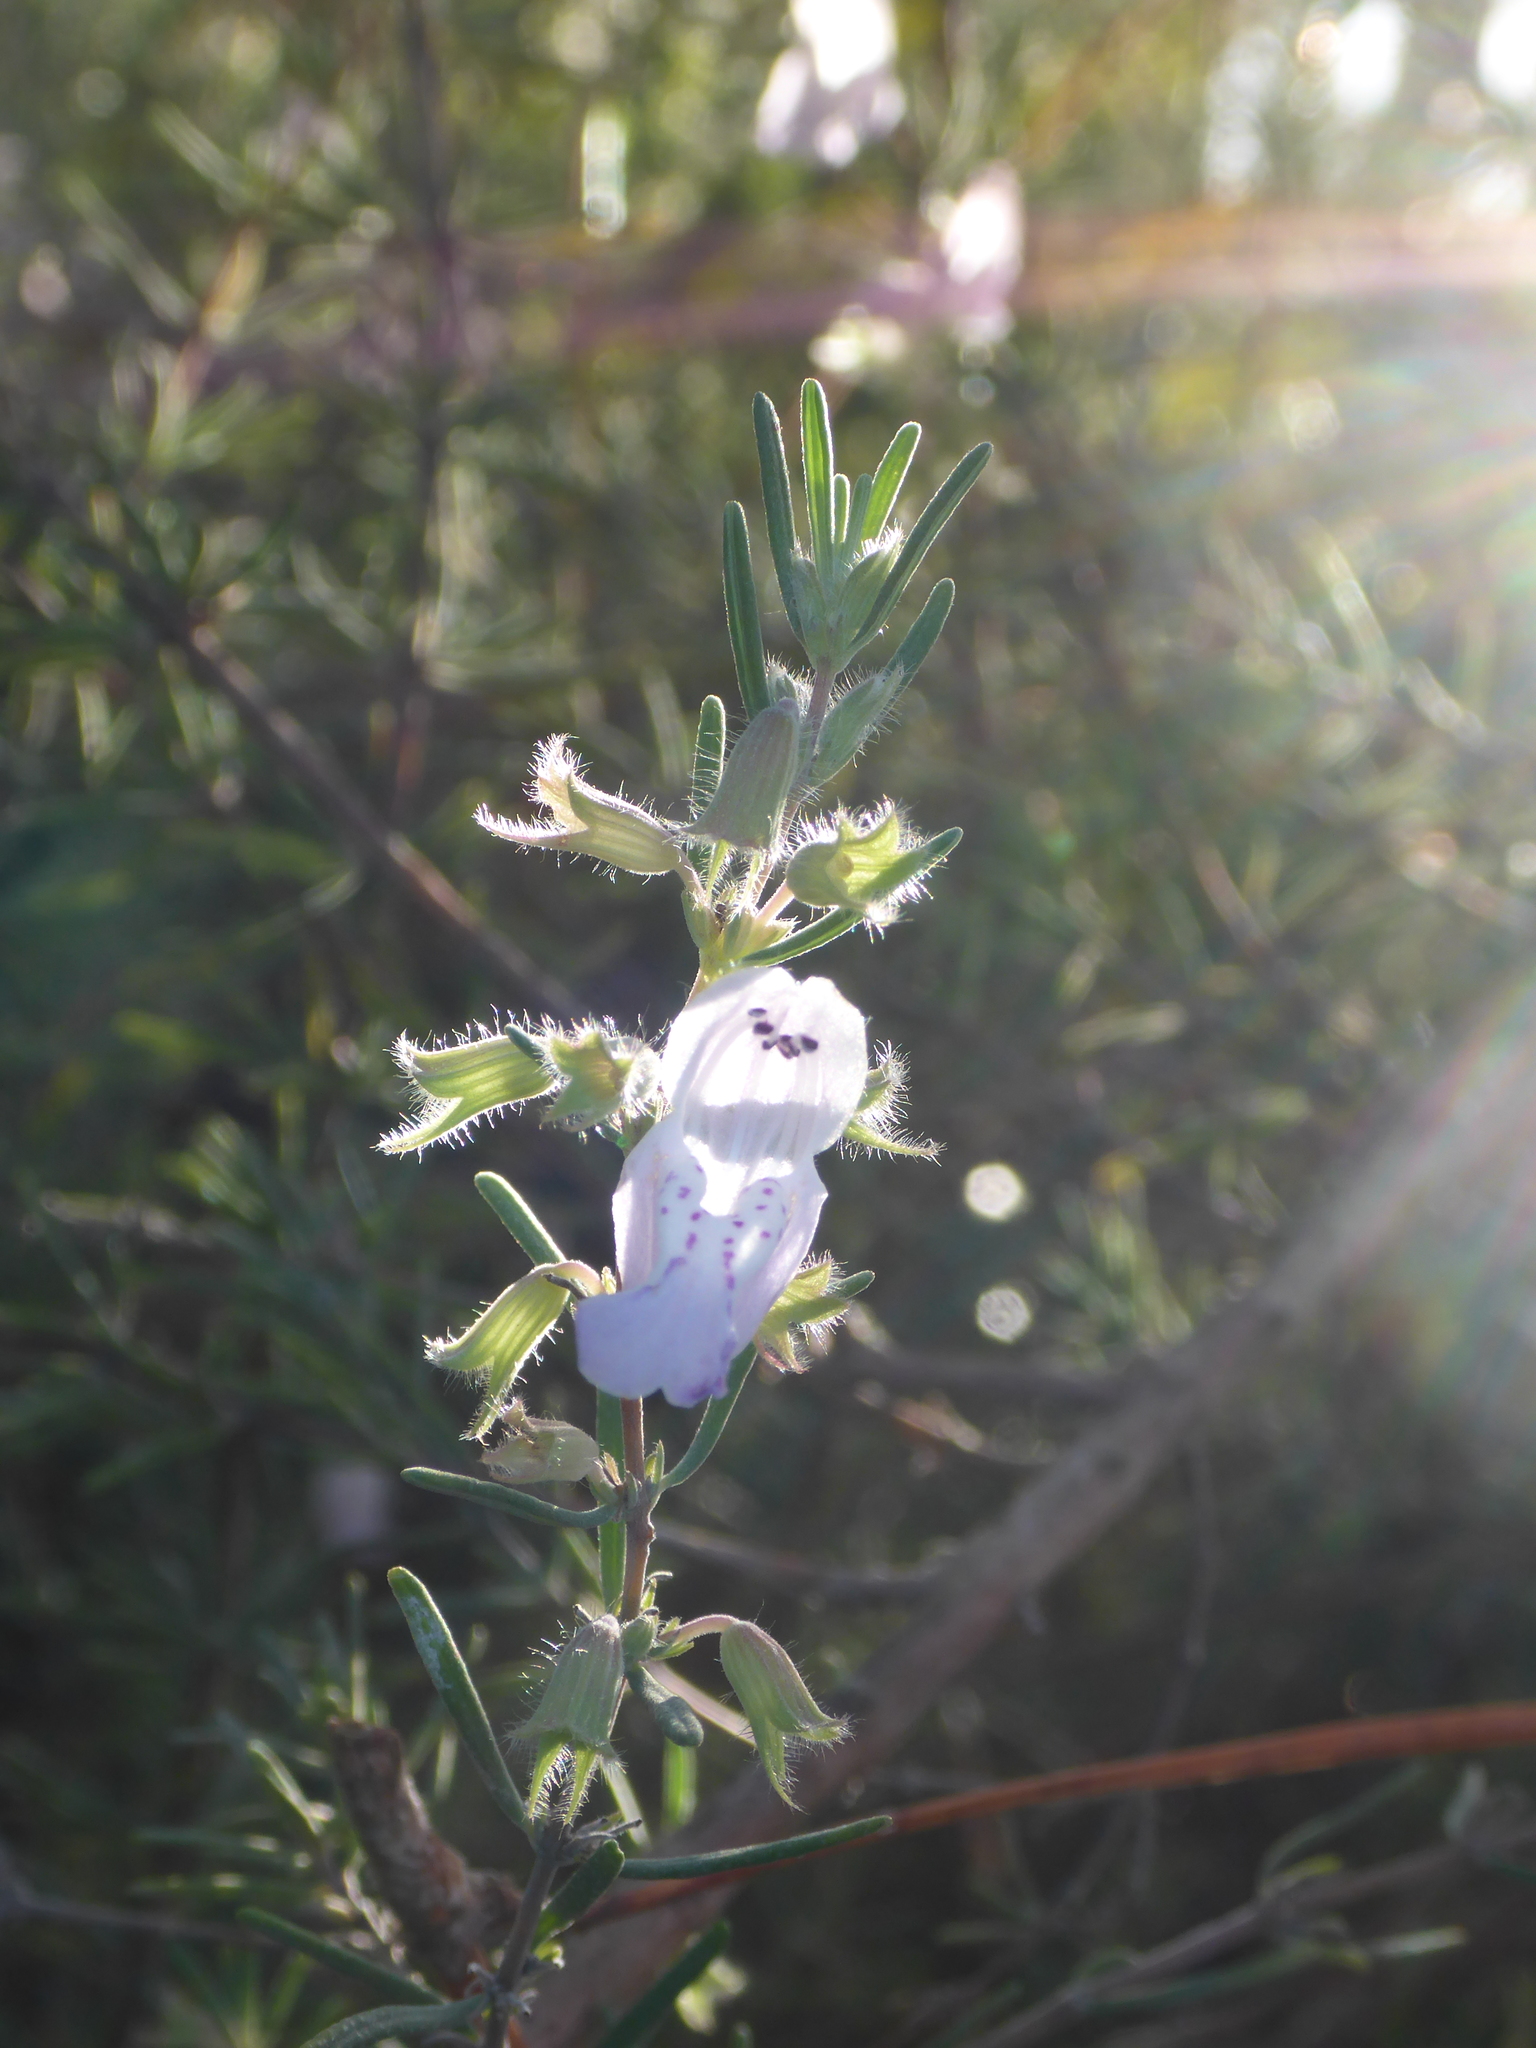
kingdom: Plantae
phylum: Tracheophyta
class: Magnoliopsida
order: Lamiales
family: Lamiaceae
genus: Conradina
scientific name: Conradina canescens
